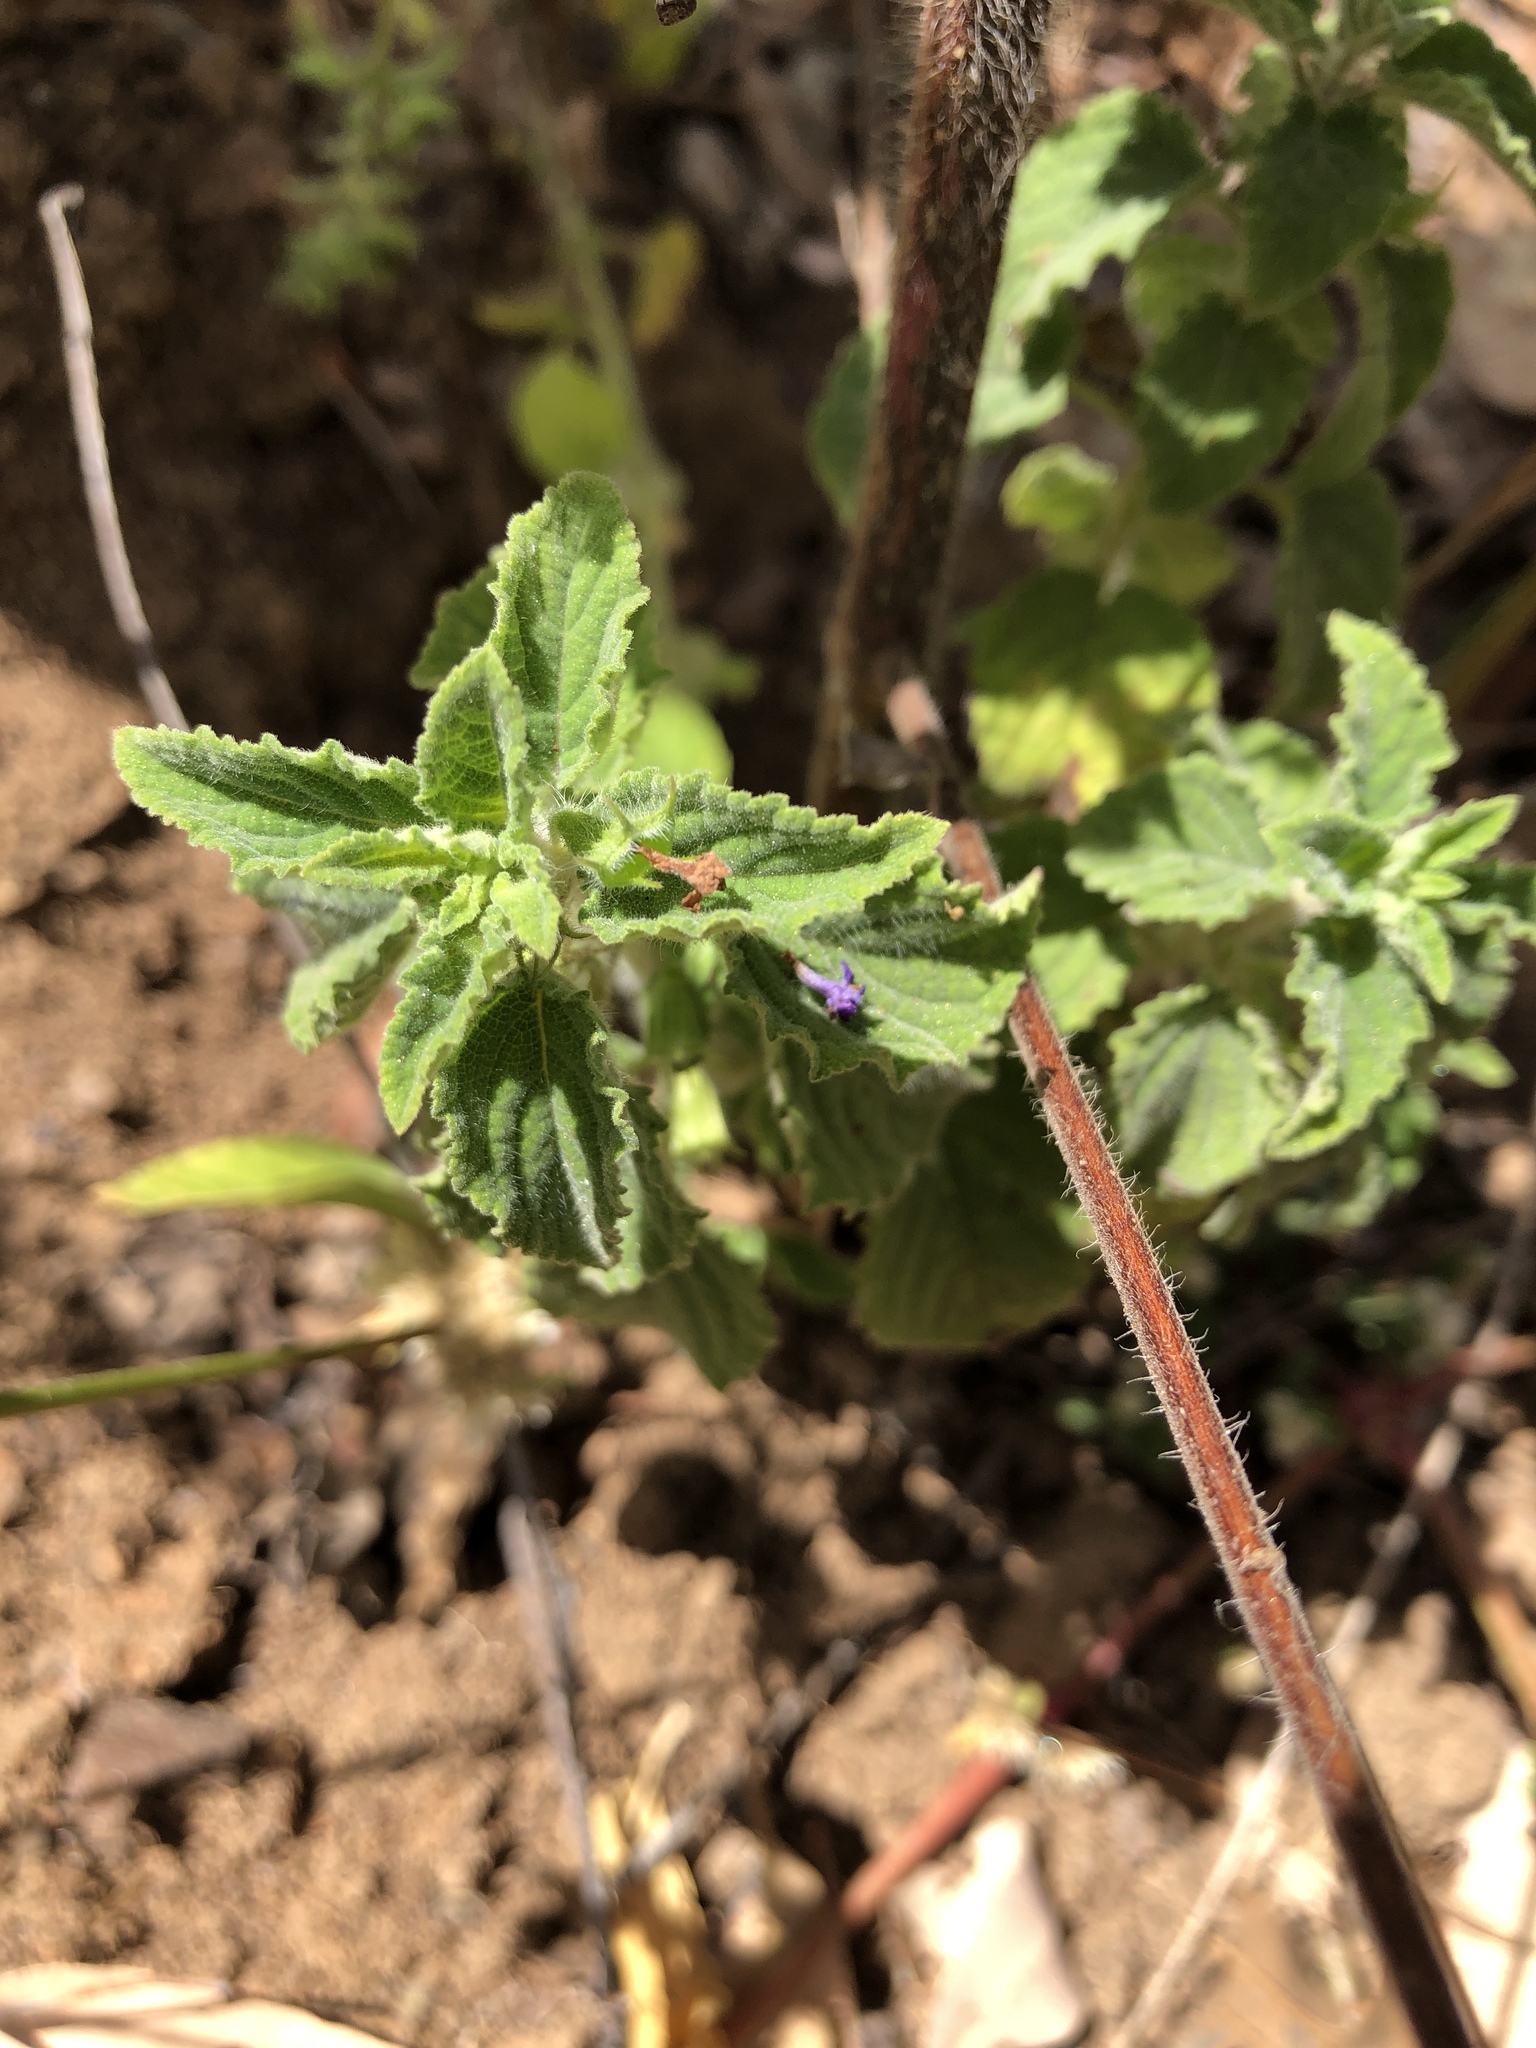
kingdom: Plantae
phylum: Tracheophyta
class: Magnoliopsida
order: Lamiales
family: Lamiaceae
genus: Mesosphaerum
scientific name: Mesosphaerum suaveolens
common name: Pignut
